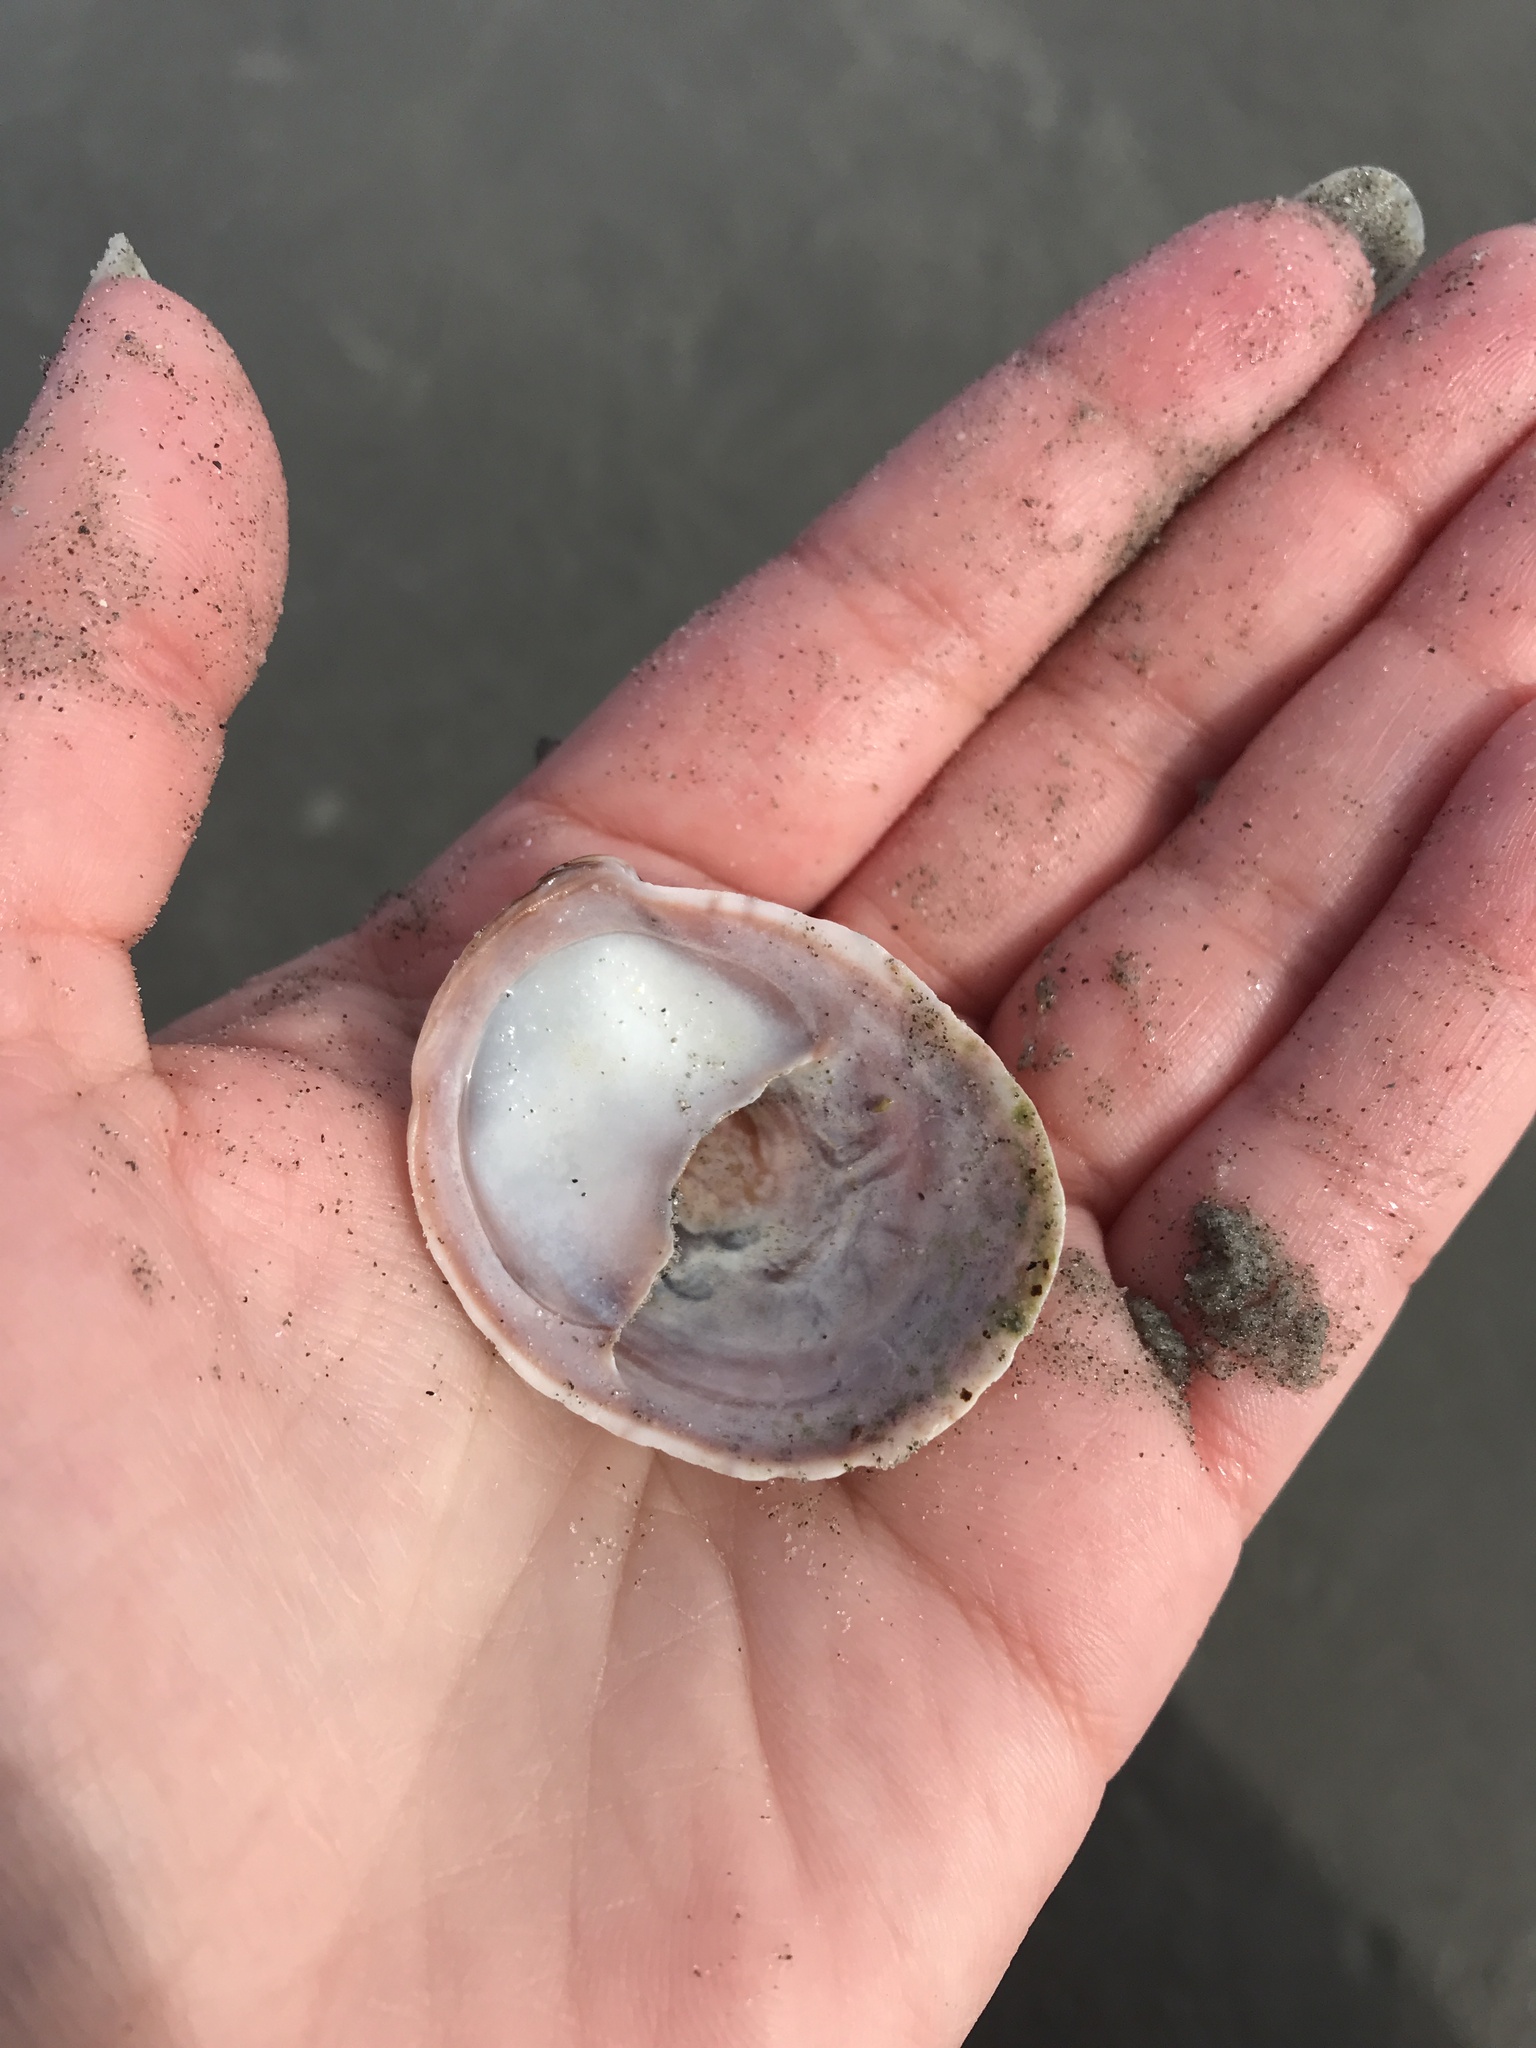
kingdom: Animalia
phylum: Mollusca
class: Gastropoda
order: Littorinimorpha
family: Calyptraeidae
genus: Crepidula
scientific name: Crepidula fornicata
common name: Slipper limpet
